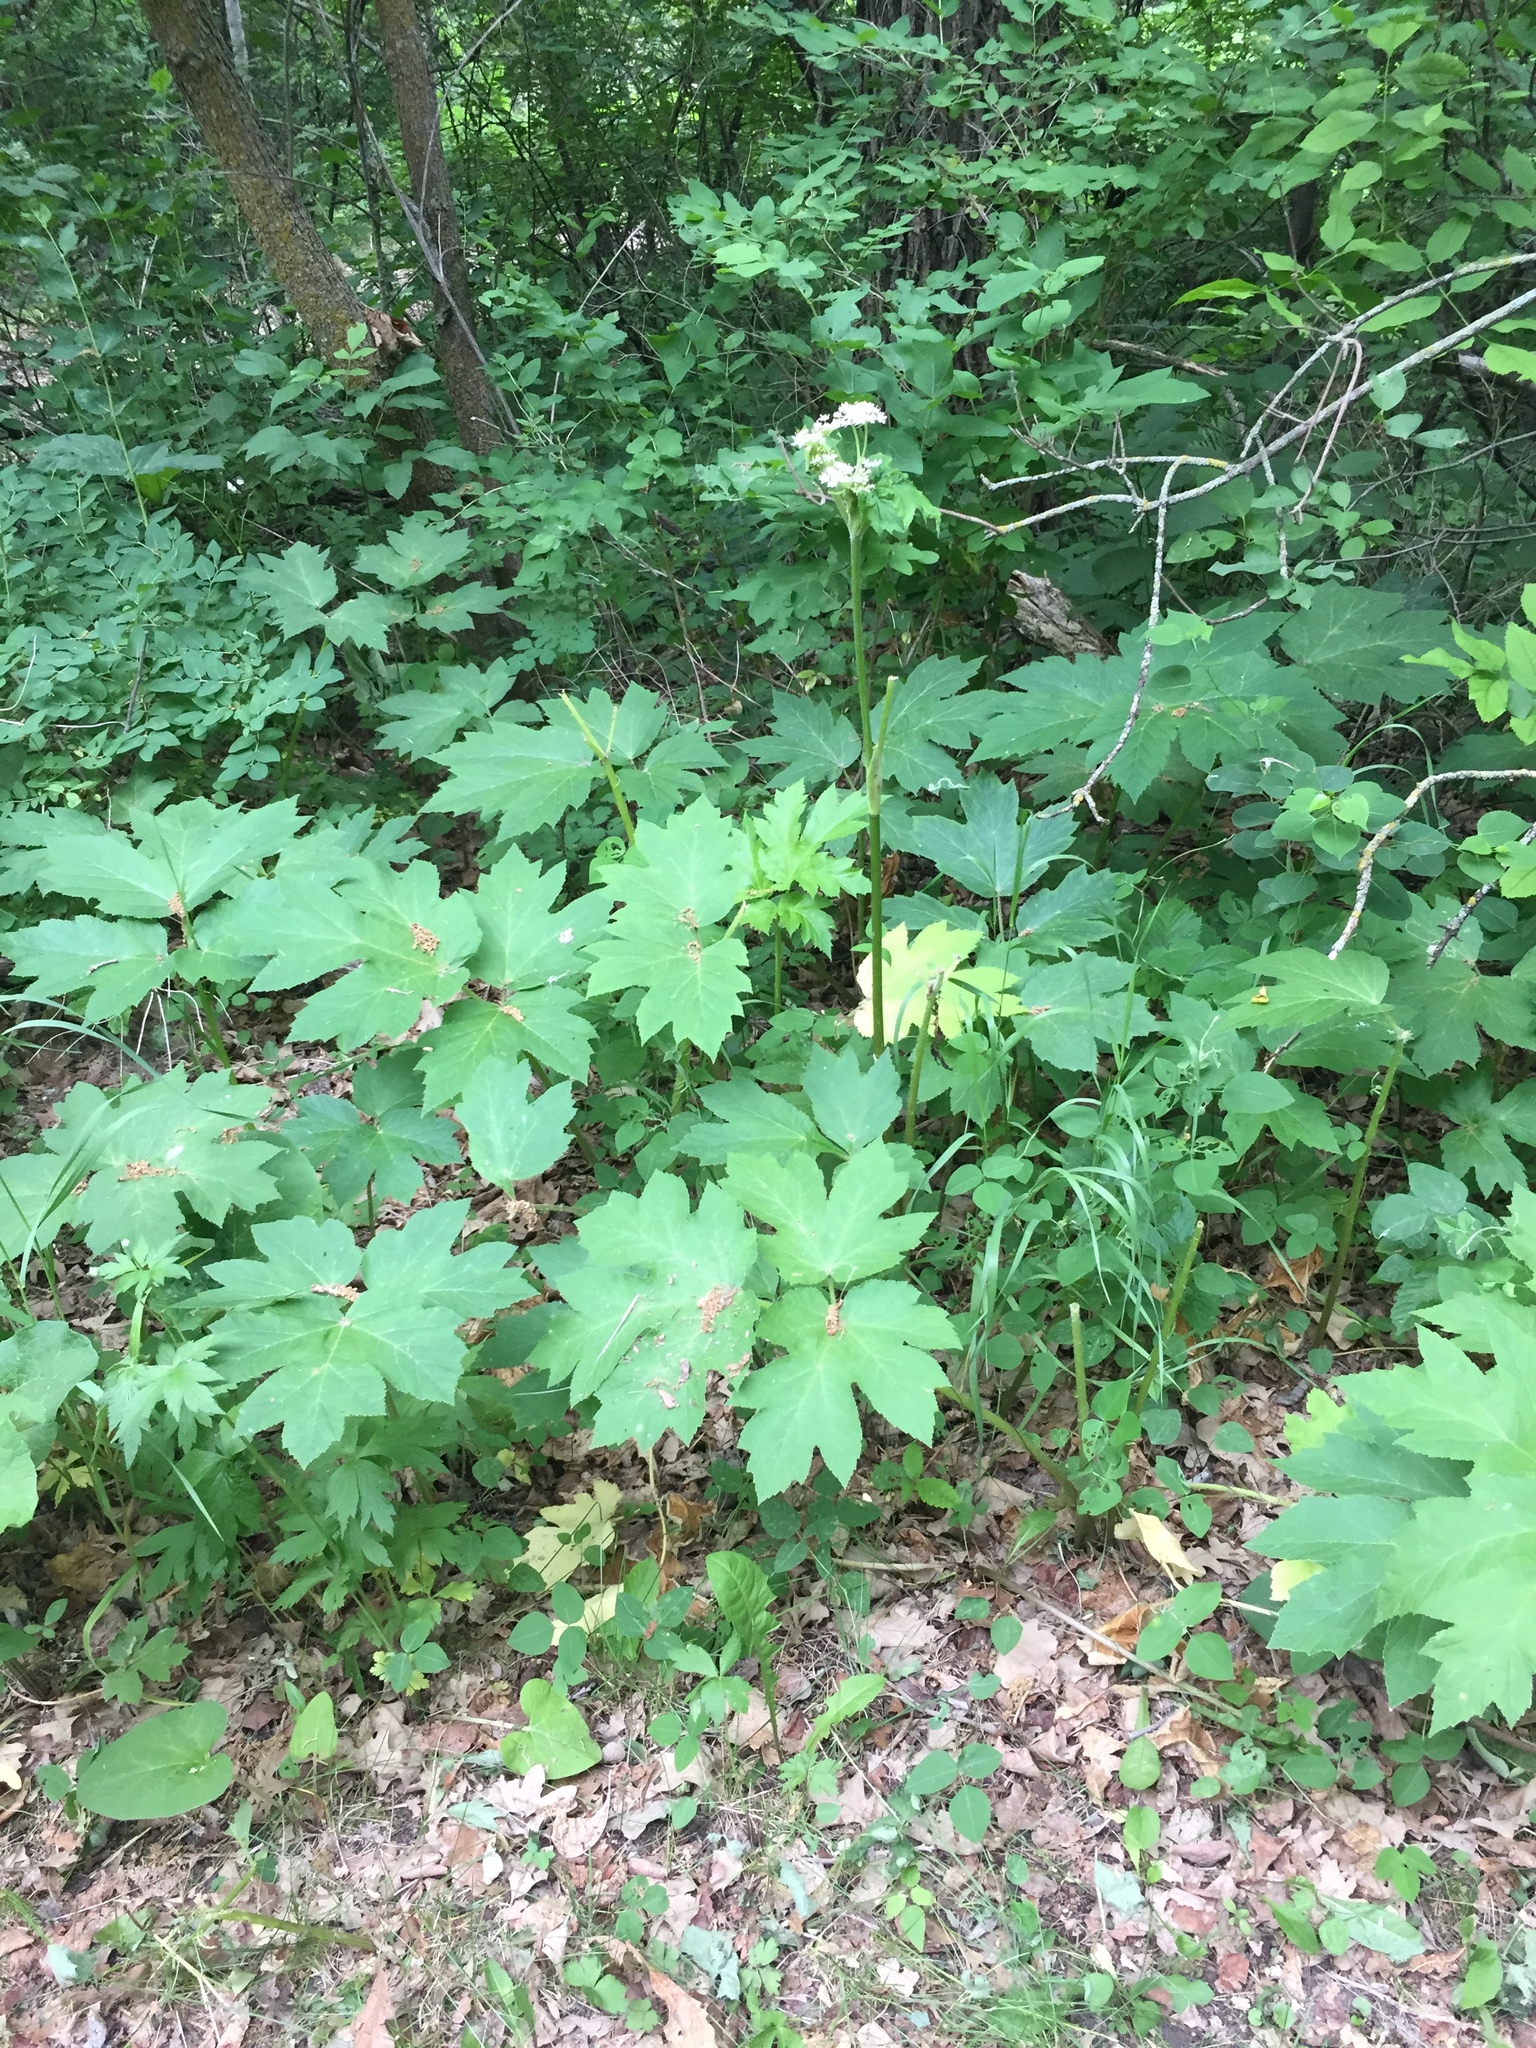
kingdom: Plantae
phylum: Tracheophyta
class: Magnoliopsida
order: Apiales
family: Apiaceae
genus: Heracleum
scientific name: Heracleum maximum
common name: American cow parsnip
